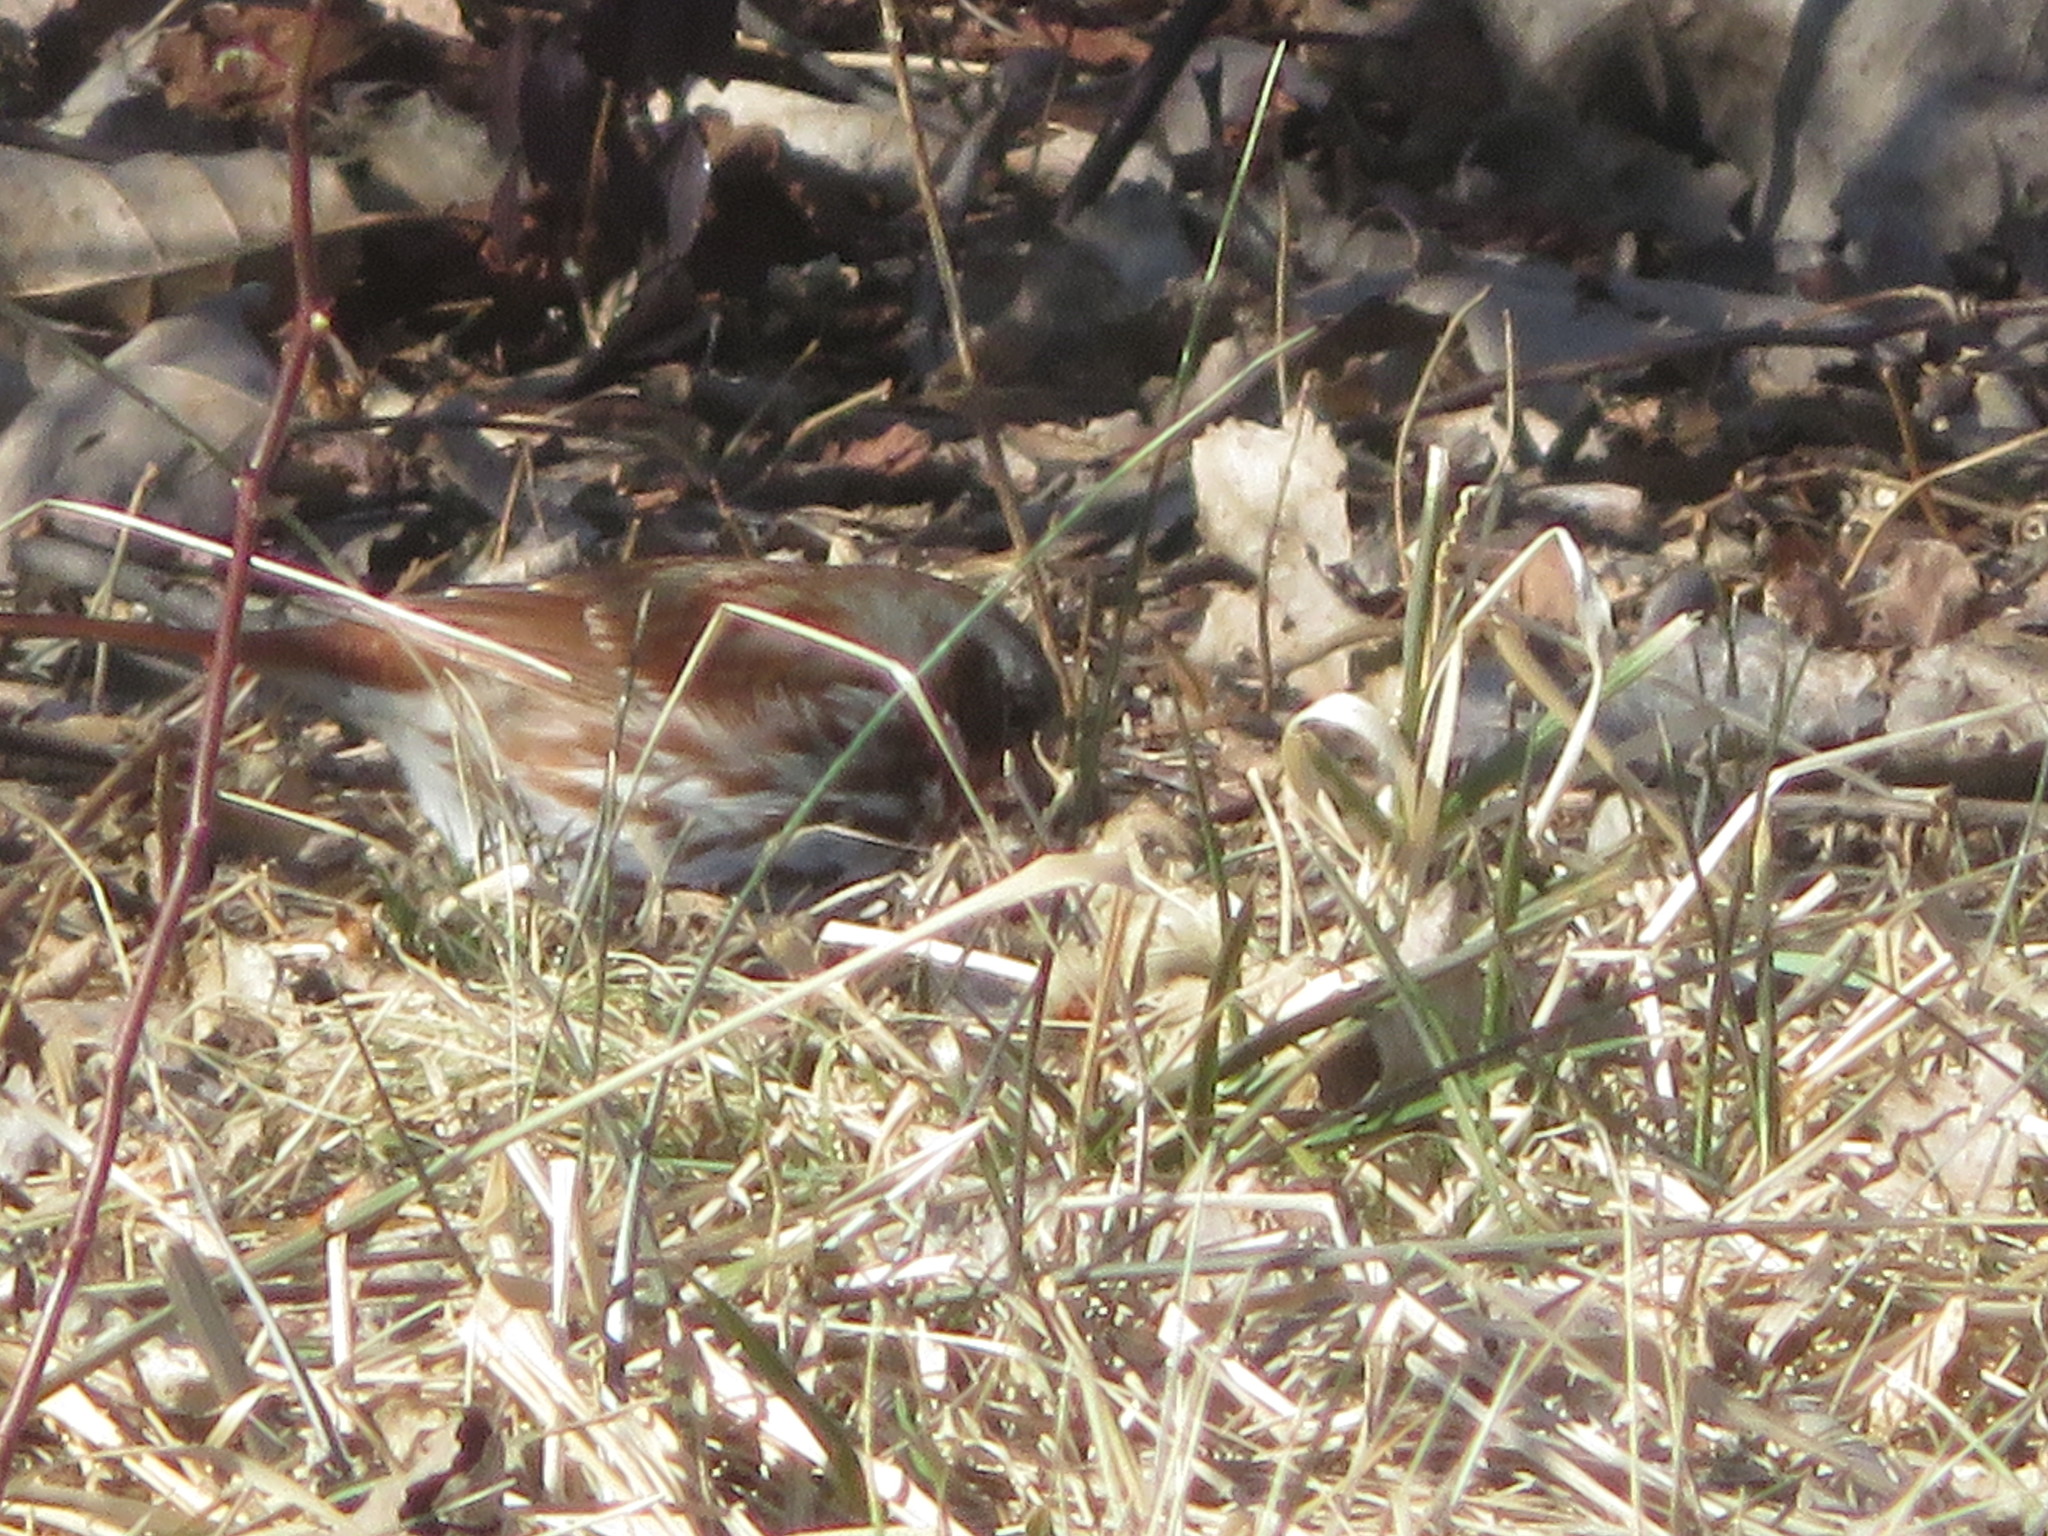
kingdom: Animalia
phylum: Chordata
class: Aves
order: Passeriformes
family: Passerellidae
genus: Passerella
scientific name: Passerella iliaca
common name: Fox sparrow
